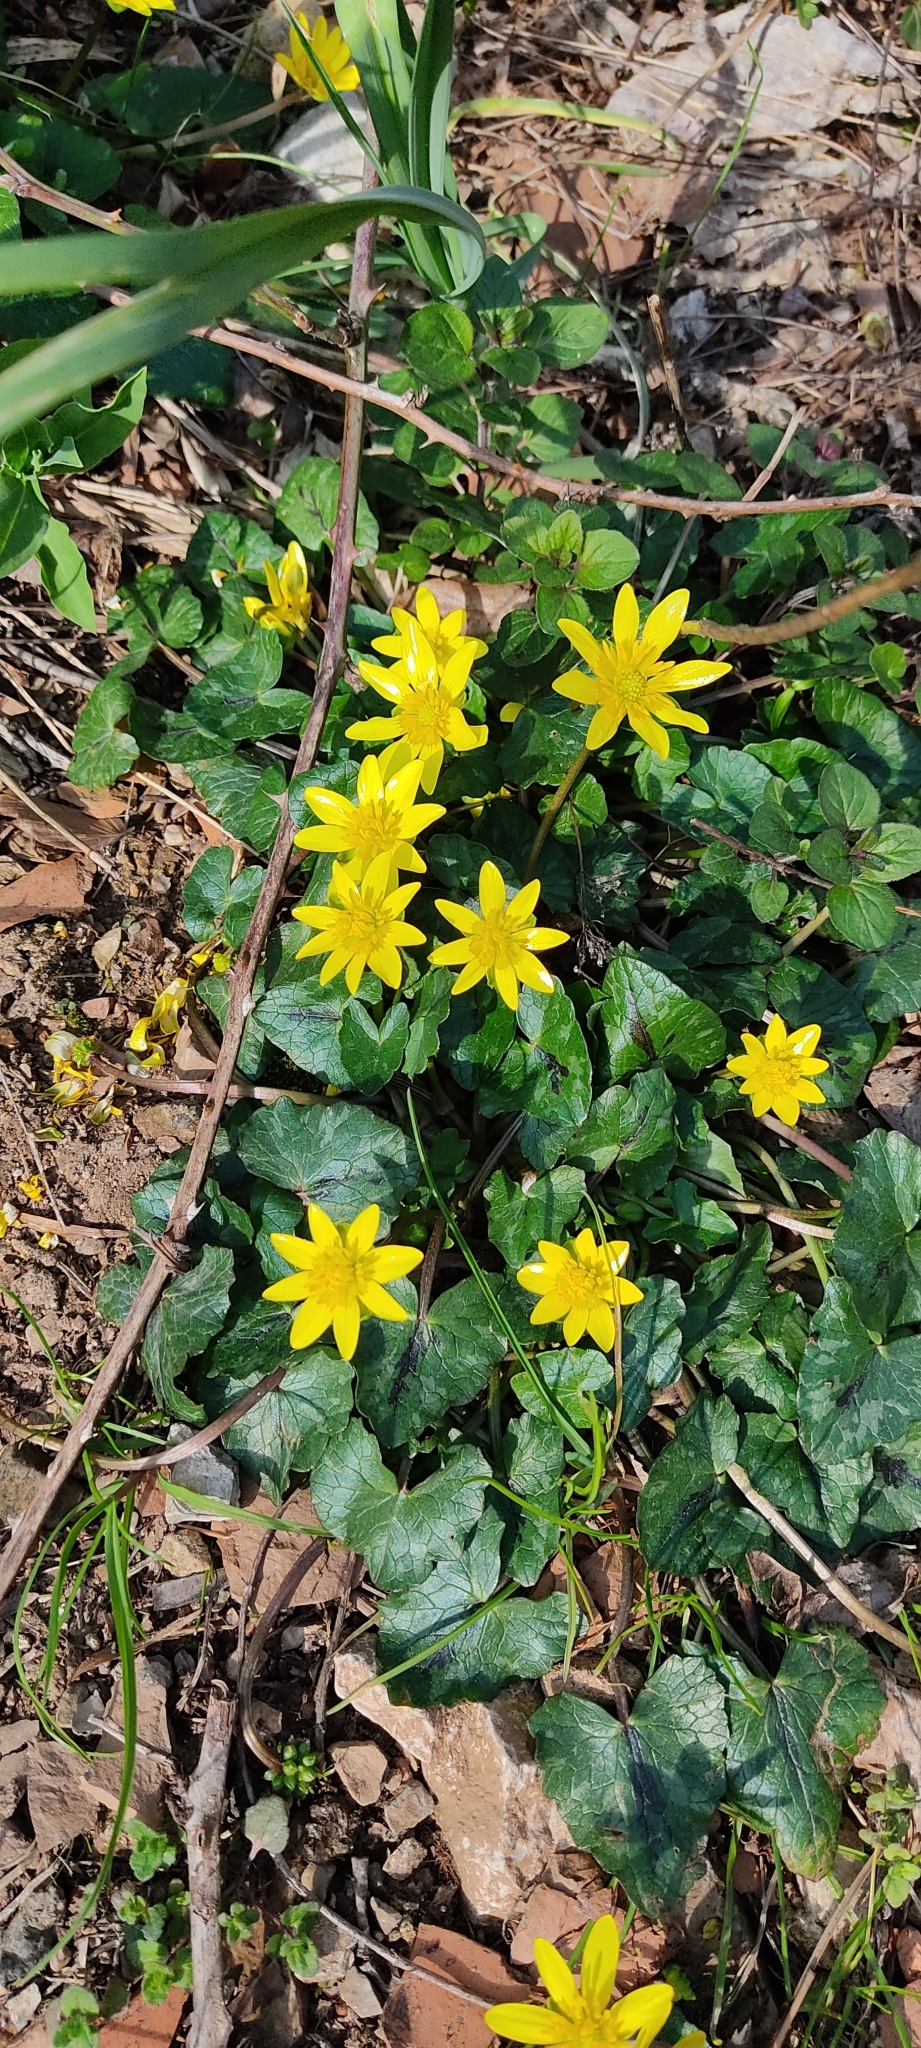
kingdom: Plantae
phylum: Tracheophyta
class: Magnoliopsida
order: Ranunculales
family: Ranunculaceae
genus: Ficaria
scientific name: Ficaria verna
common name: Lesser celandine
